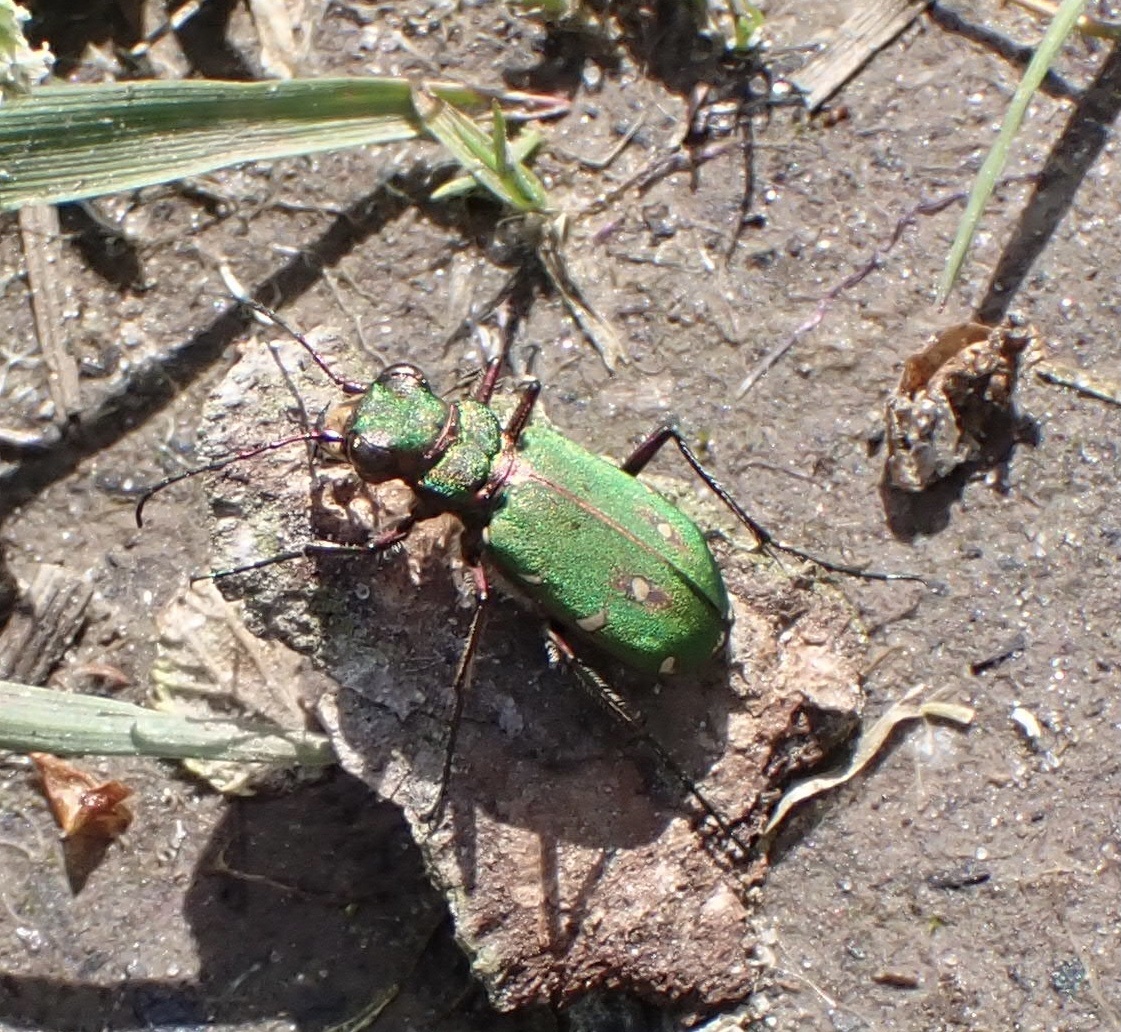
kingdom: Animalia
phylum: Arthropoda
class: Insecta
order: Coleoptera
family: Carabidae
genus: Cicindela
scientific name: Cicindela campestris
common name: Common tiger beetle
